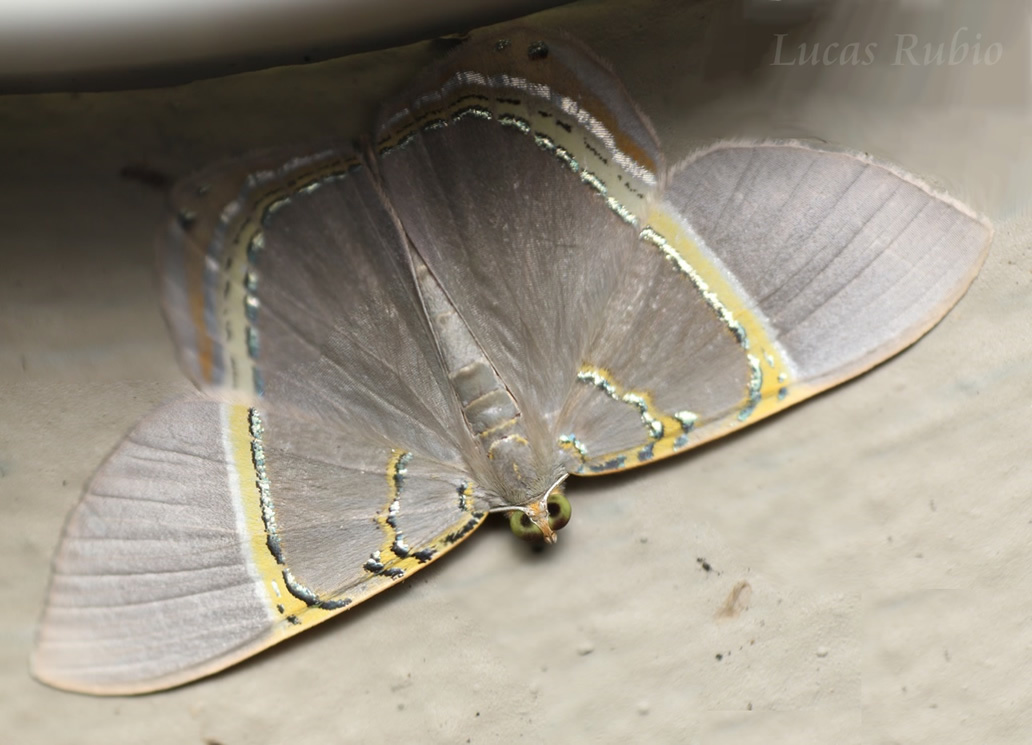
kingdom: Animalia
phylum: Arthropoda
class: Insecta
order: Lepidoptera
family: Geometridae
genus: Phrygionis
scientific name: Phrygionis paradoxata
